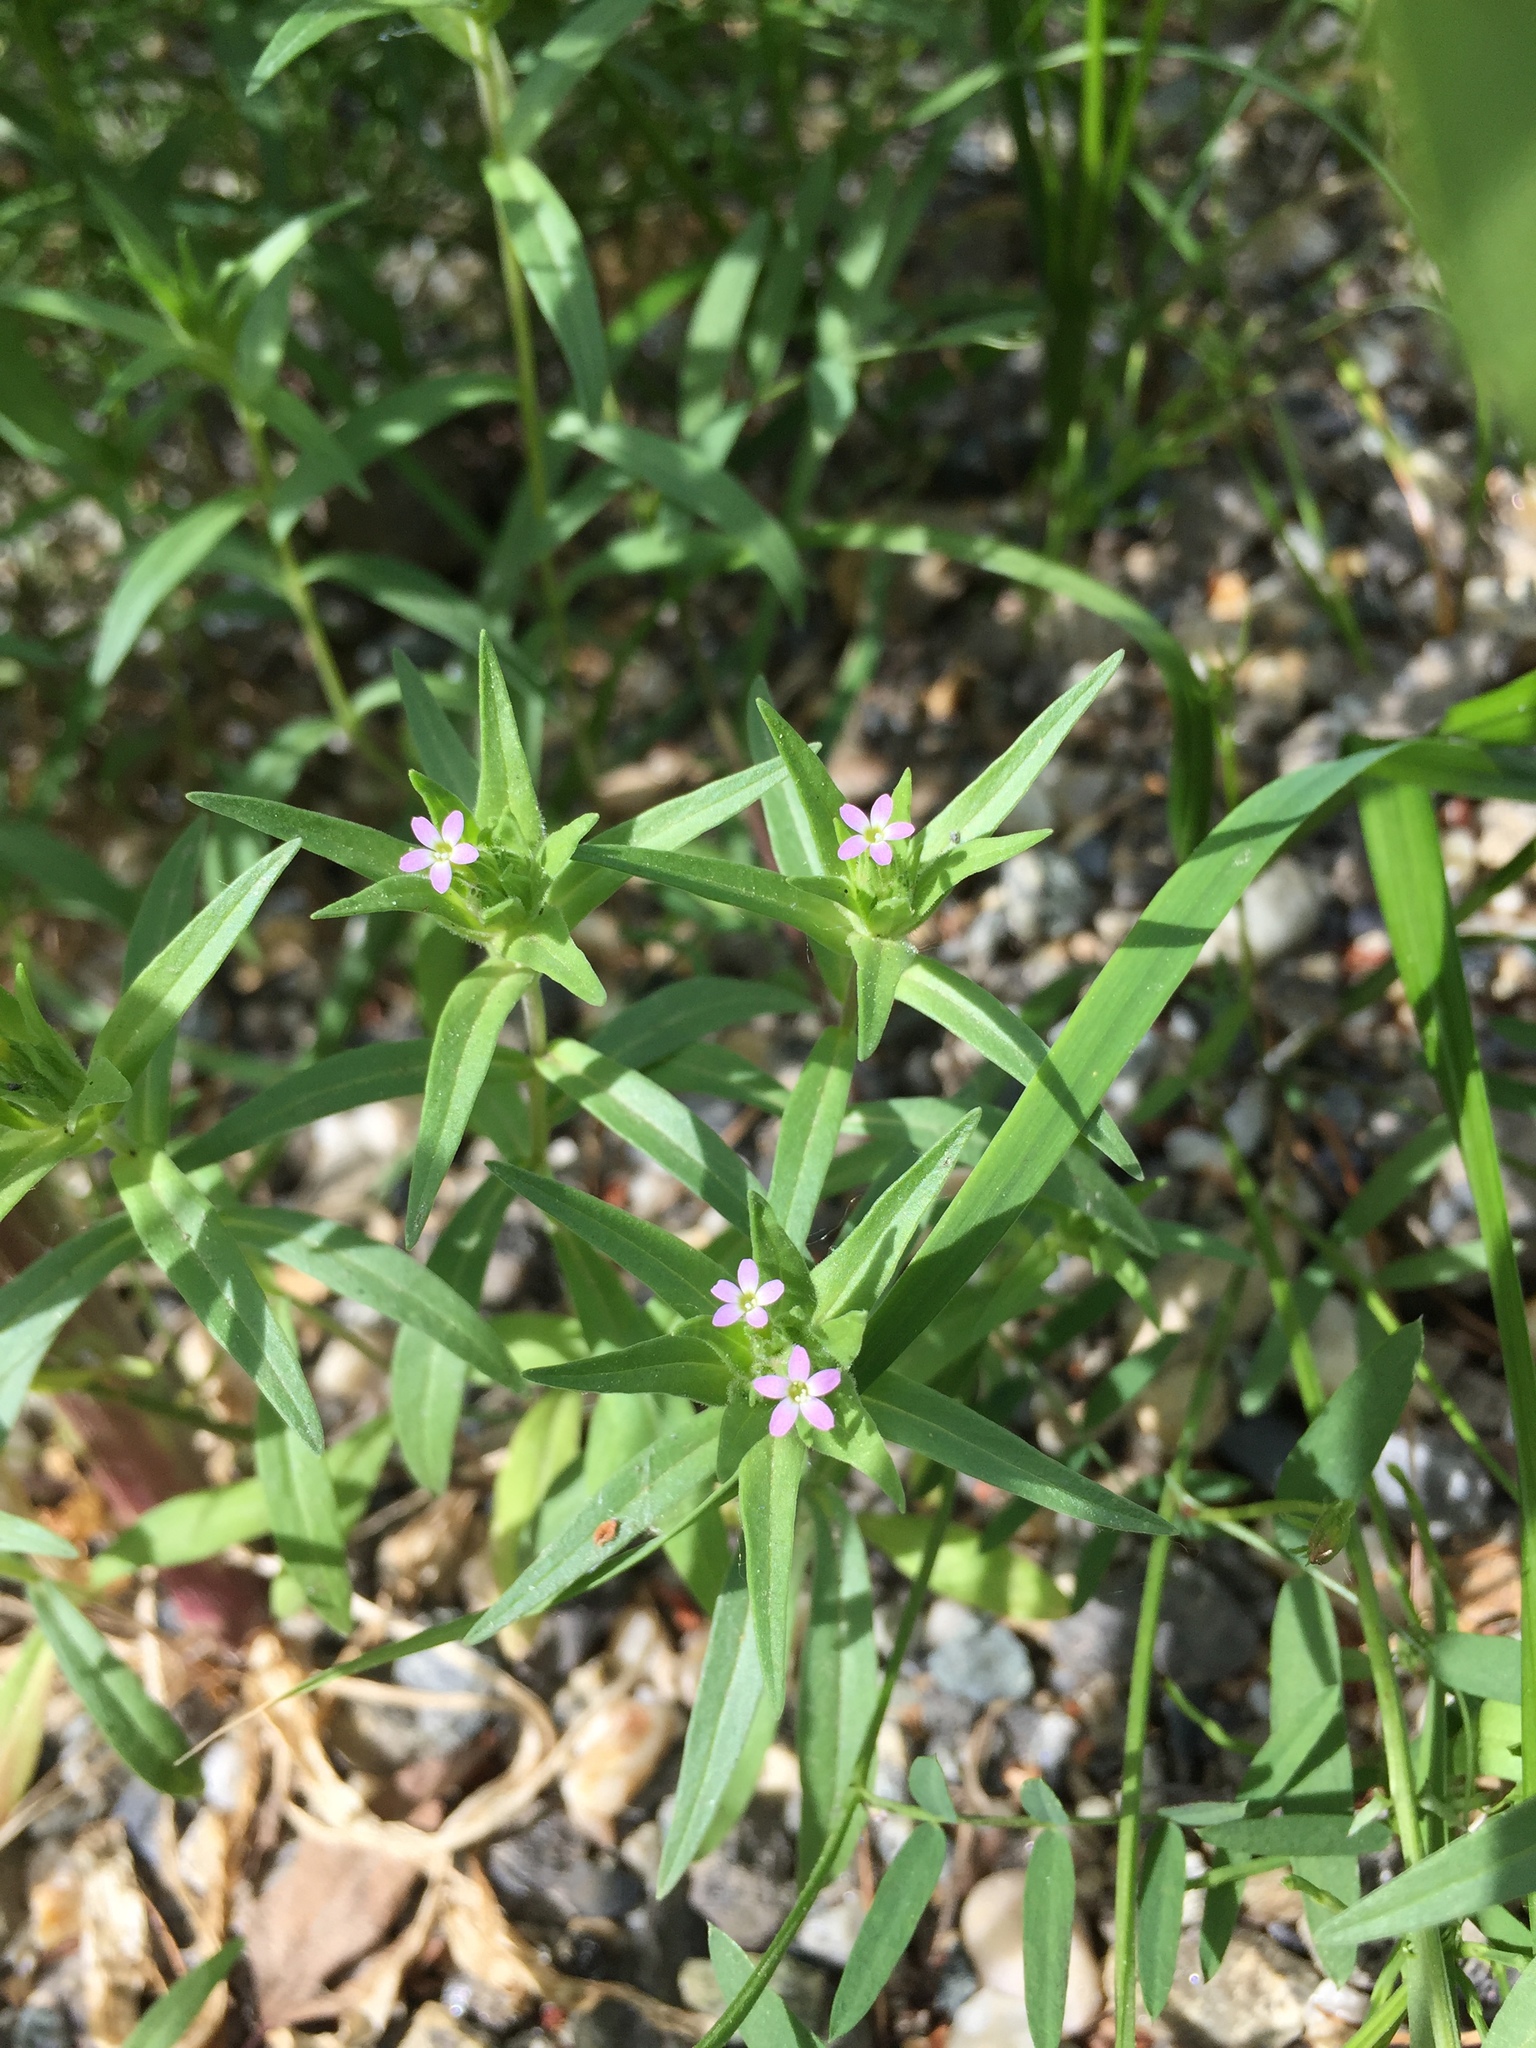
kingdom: Plantae
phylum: Tracheophyta
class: Magnoliopsida
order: Ericales
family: Polemoniaceae
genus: Collomia
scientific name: Collomia linearis
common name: Tiny trumpet
